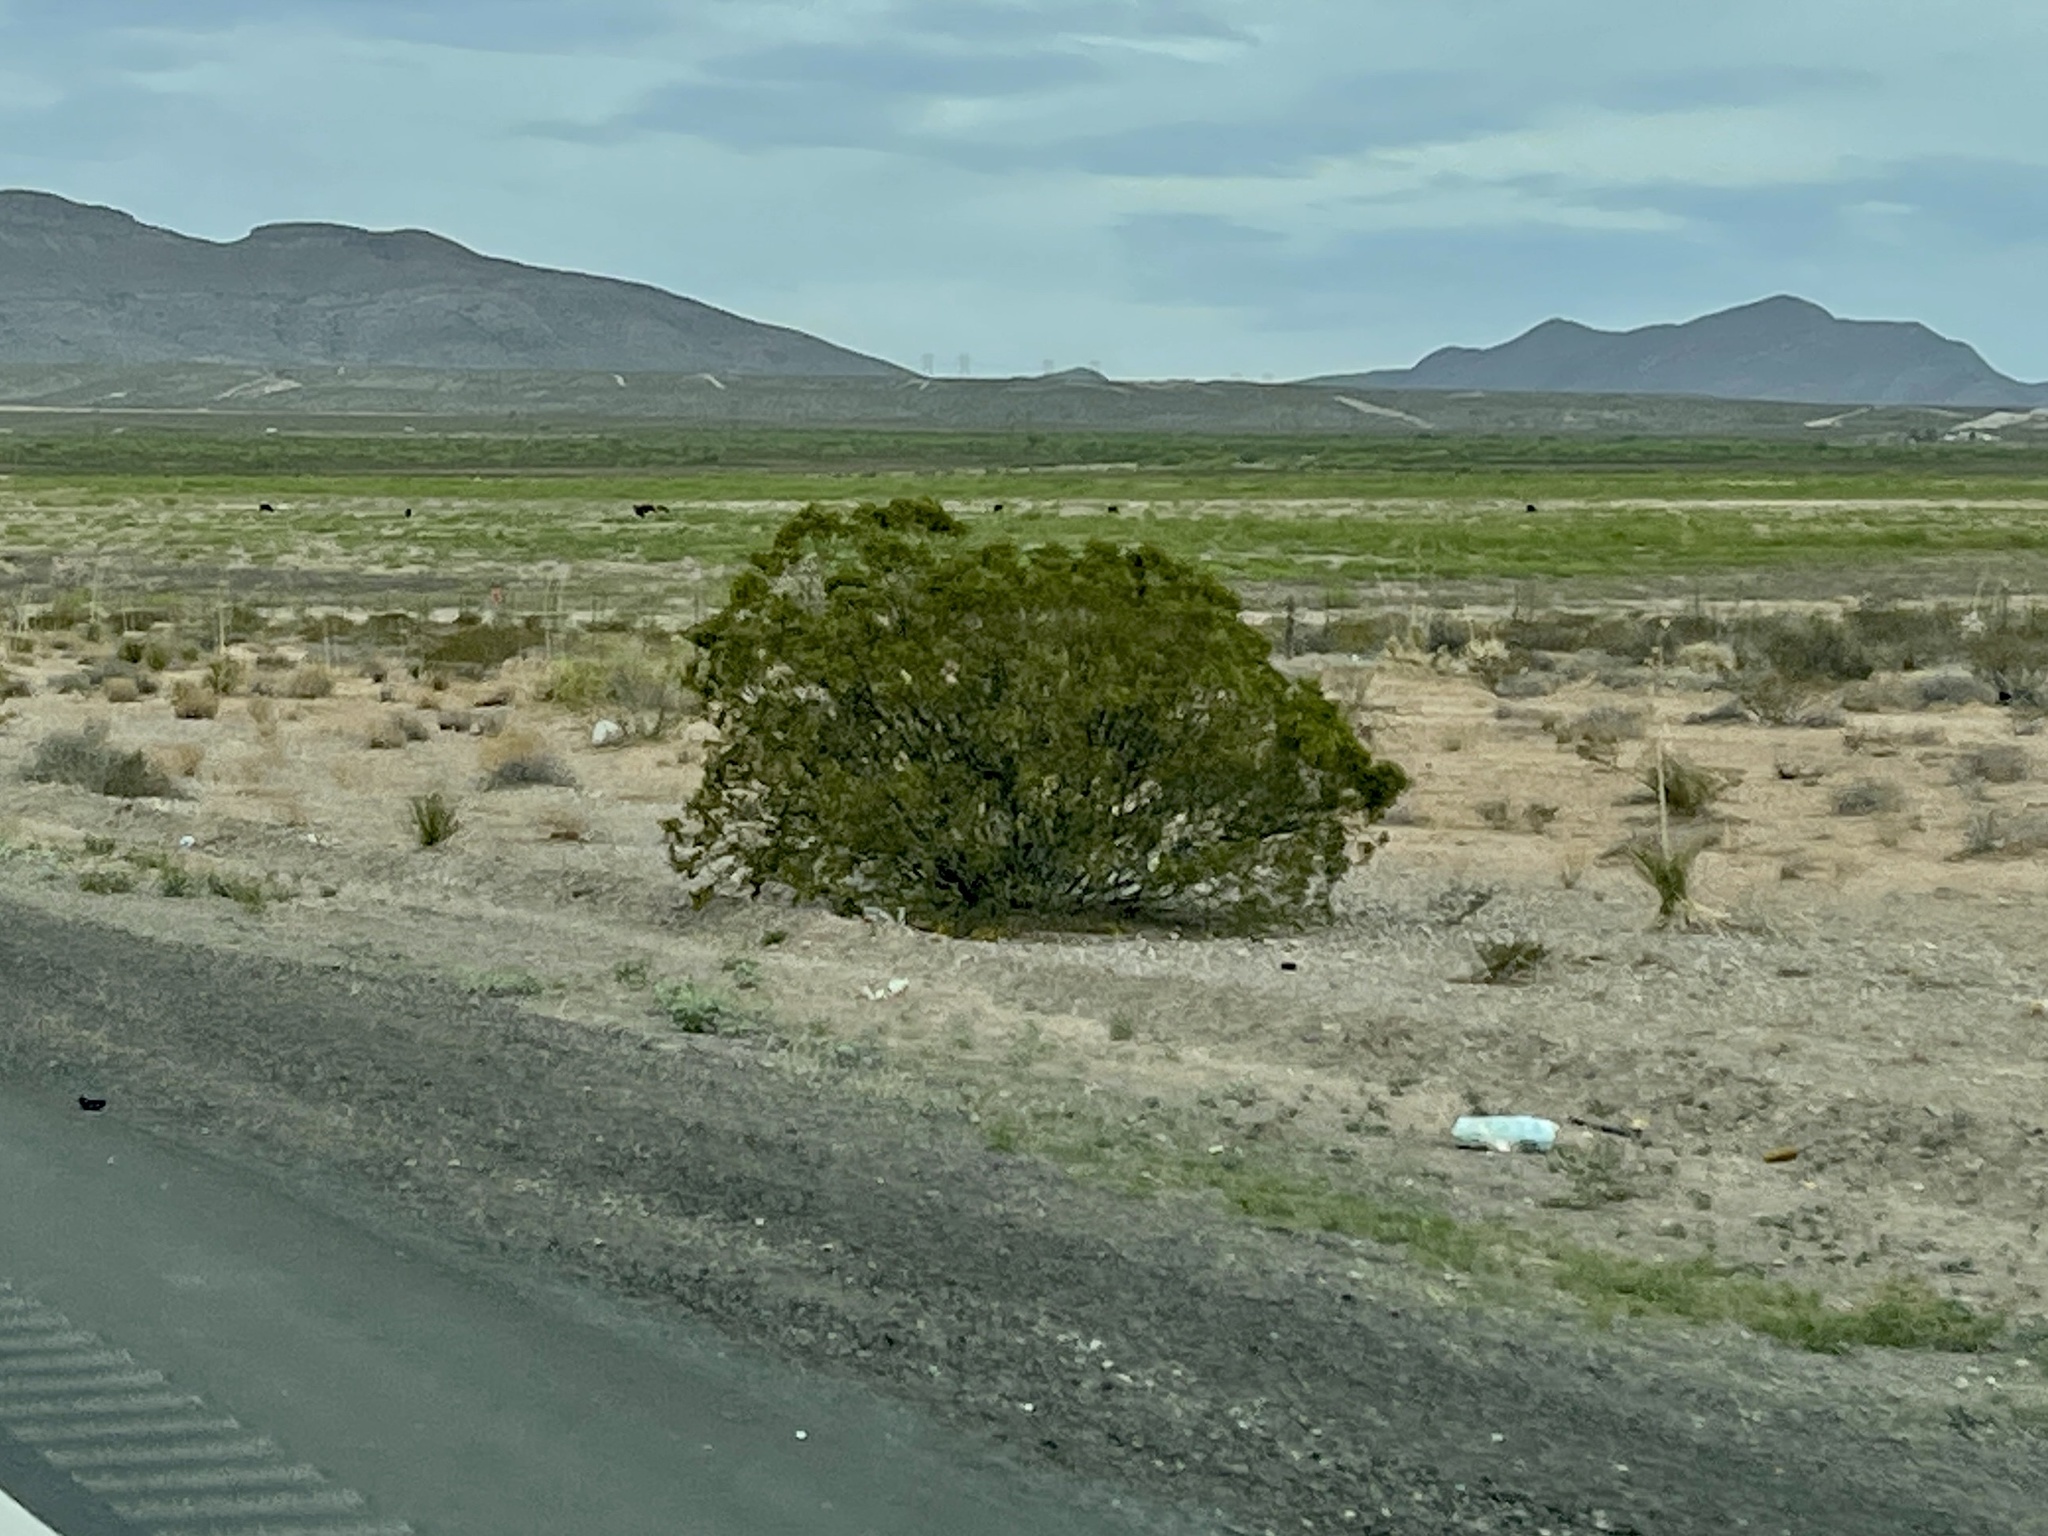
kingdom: Plantae
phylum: Tracheophyta
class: Magnoliopsida
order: Zygophyllales
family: Zygophyllaceae
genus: Larrea
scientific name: Larrea tridentata
